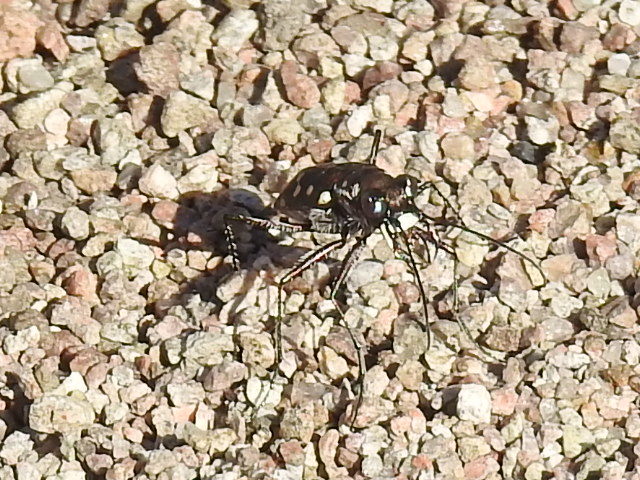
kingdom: Animalia
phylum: Arthropoda
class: Insecta
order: Coleoptera
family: Carabidae
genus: Cicindela
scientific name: Cicindela sedecimpunctata
